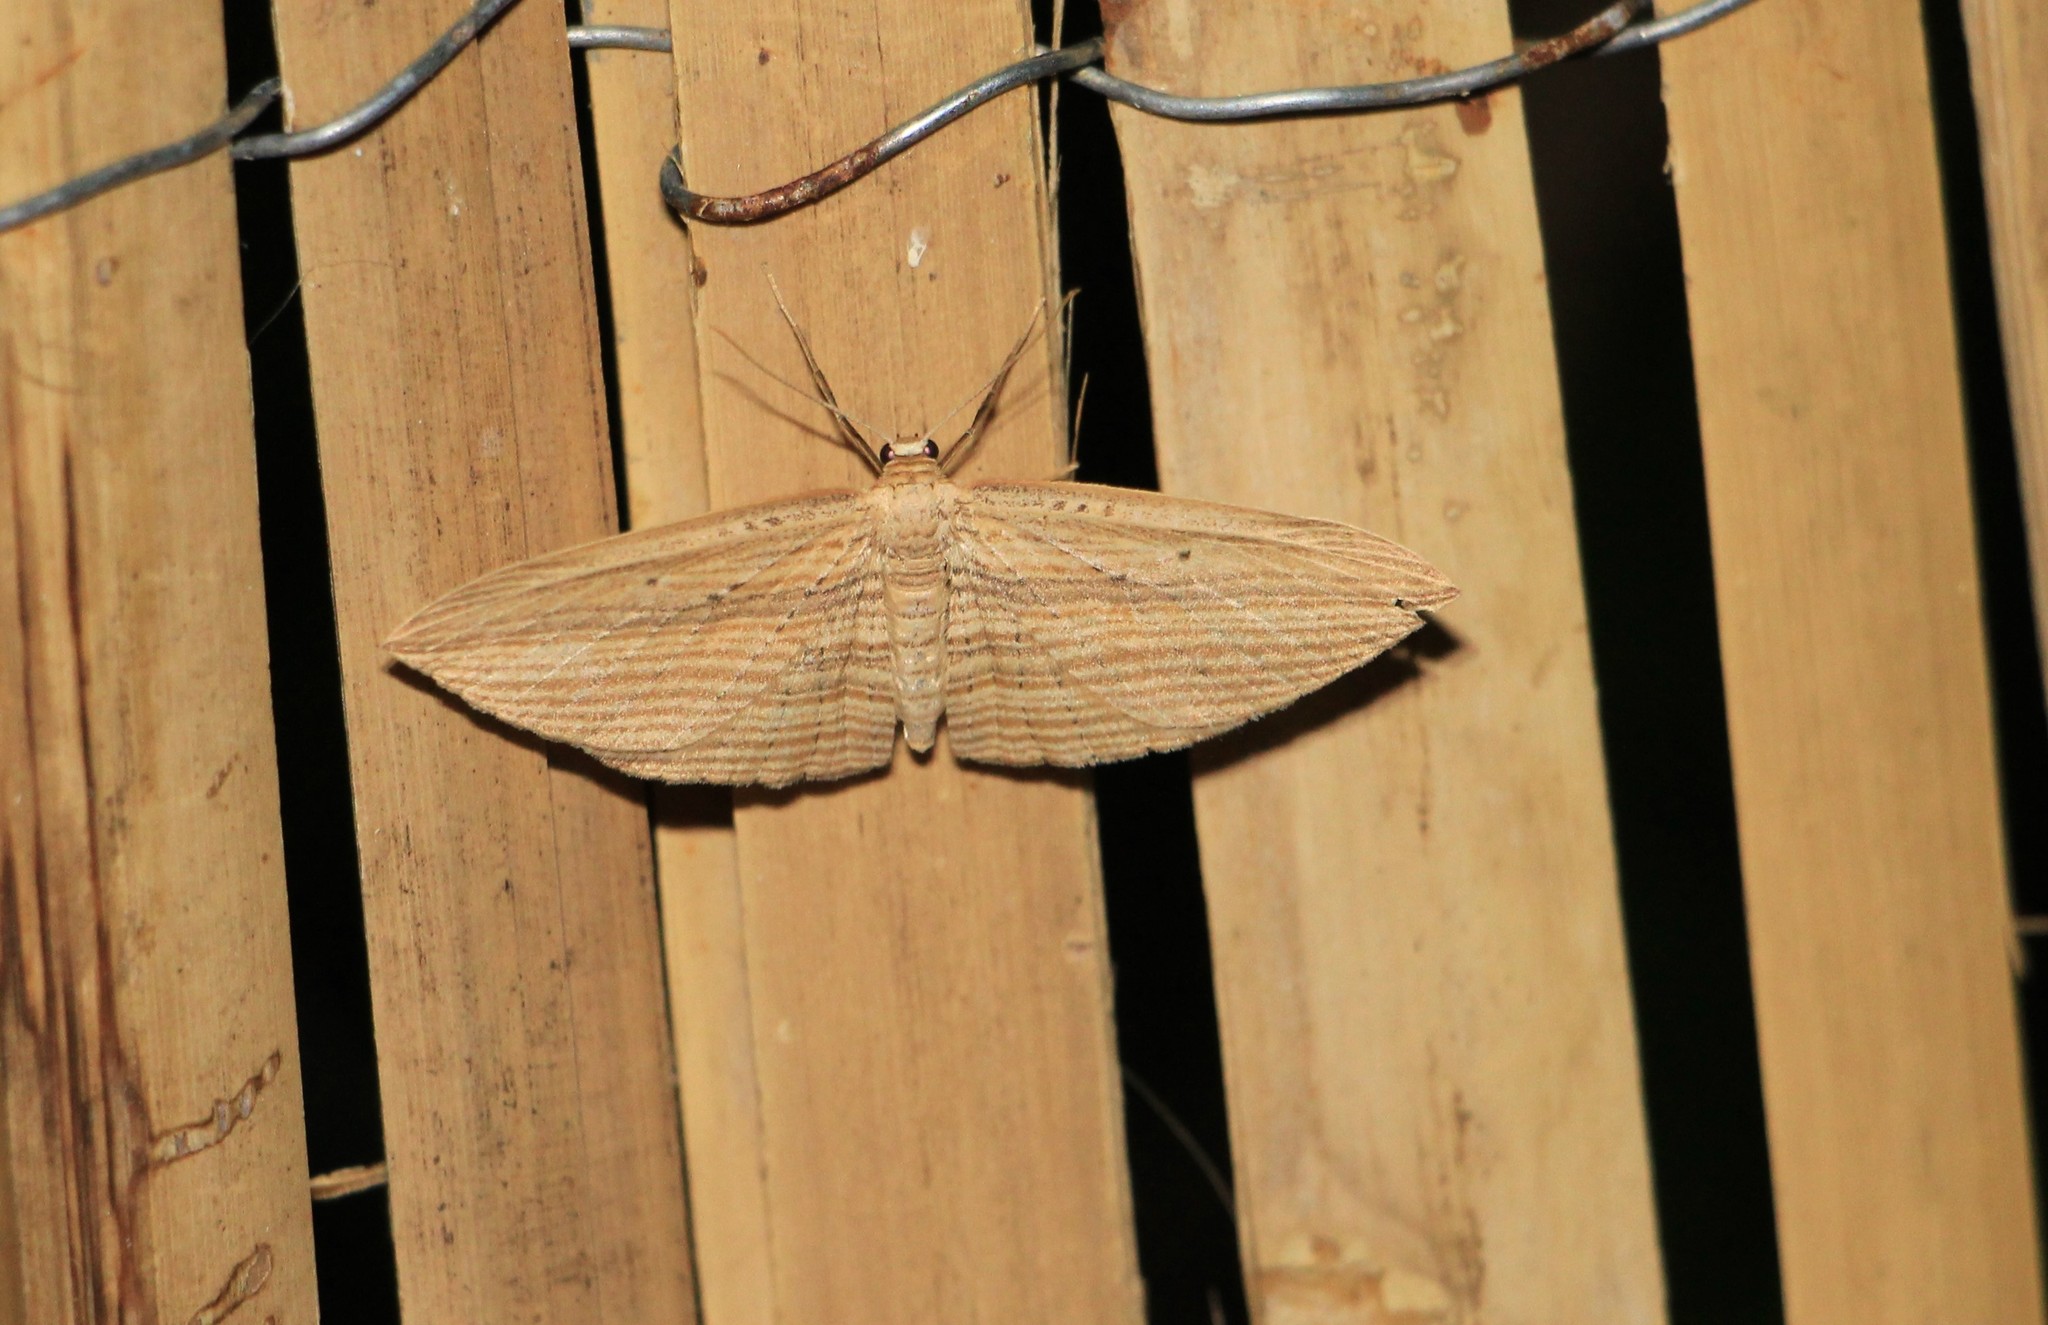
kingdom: Animalia
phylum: Arthropoda
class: Insecta
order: Lepidoptera
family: Geometridae
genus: Epiphryne
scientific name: Epiphryne verriculata
